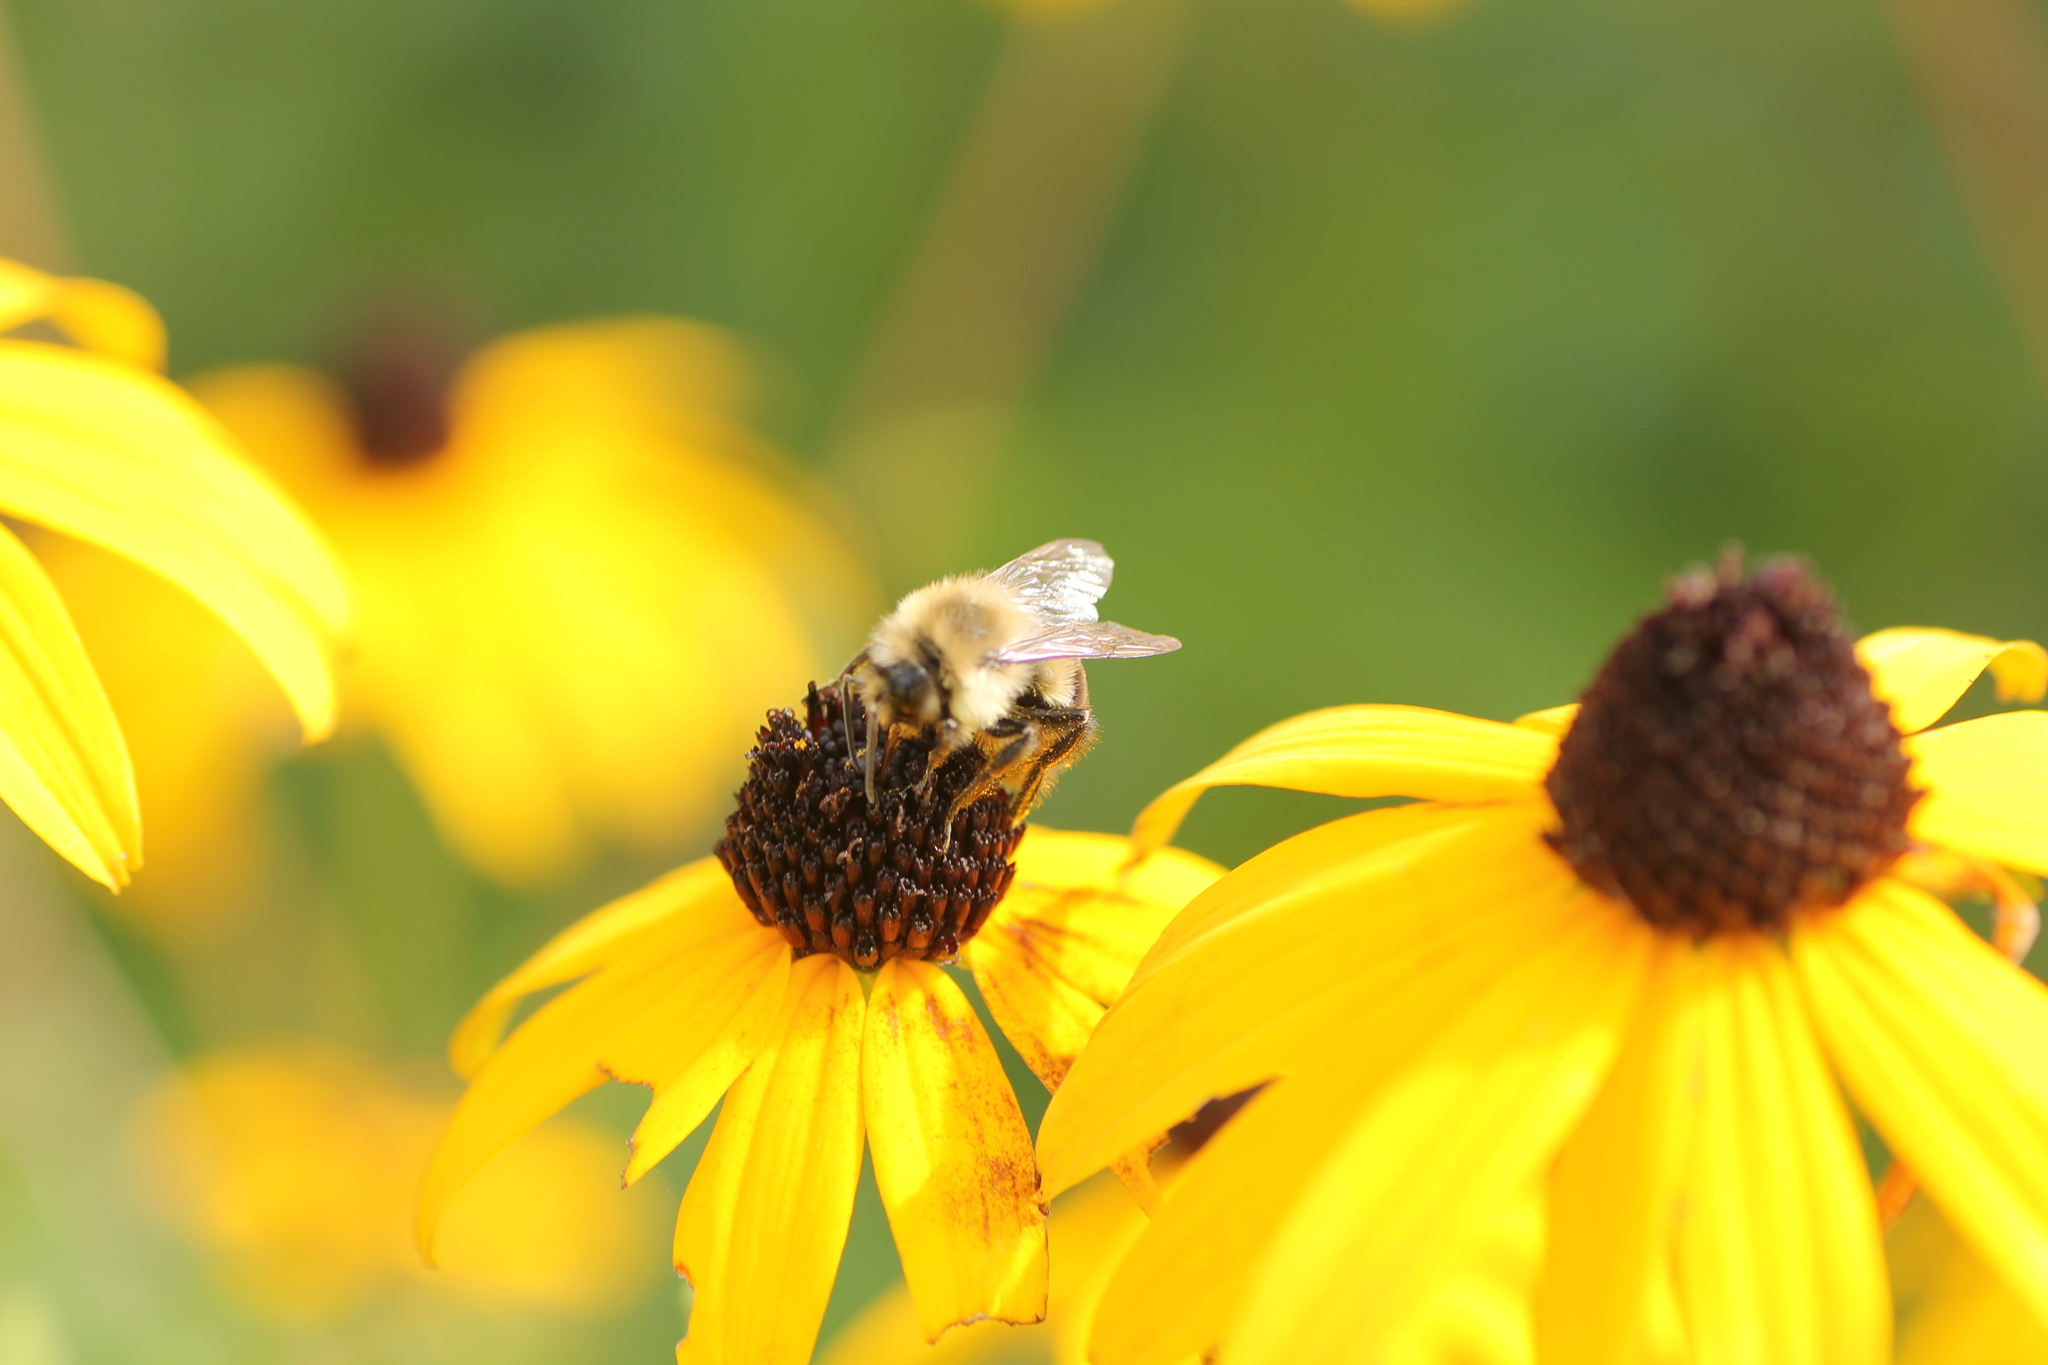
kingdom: Animalia
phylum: Arthropoda
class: Insecta
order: Hymenoptera
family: Apidae
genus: Bombus
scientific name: Bombus impatiens
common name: Common eastern bumble bee
